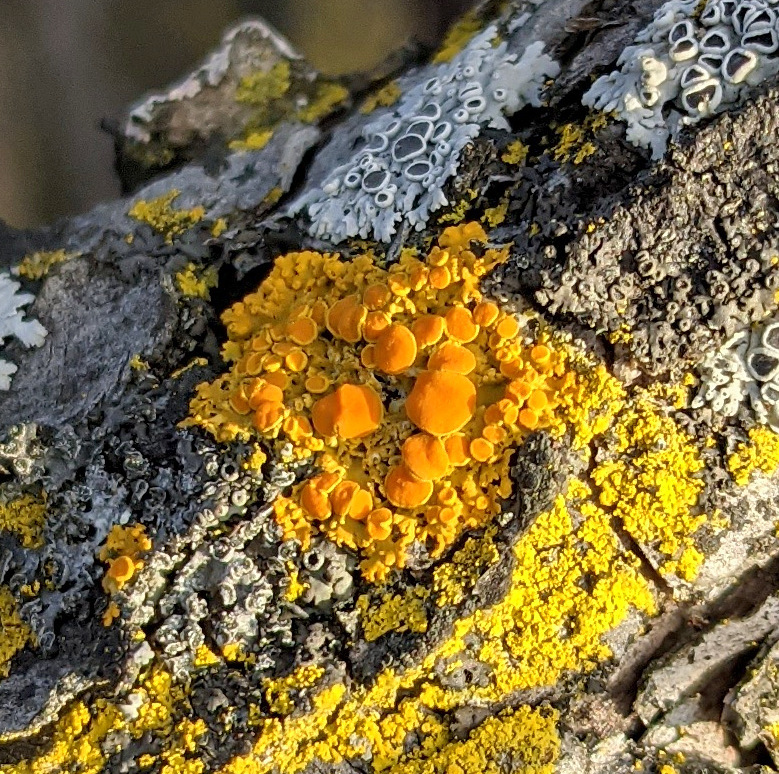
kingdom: Fungi
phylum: Ascomycota
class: Lecanoromycetes
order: Teloschistales
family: Teloschistaceae
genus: Gallowayella
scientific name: Gallowayella hasseana
